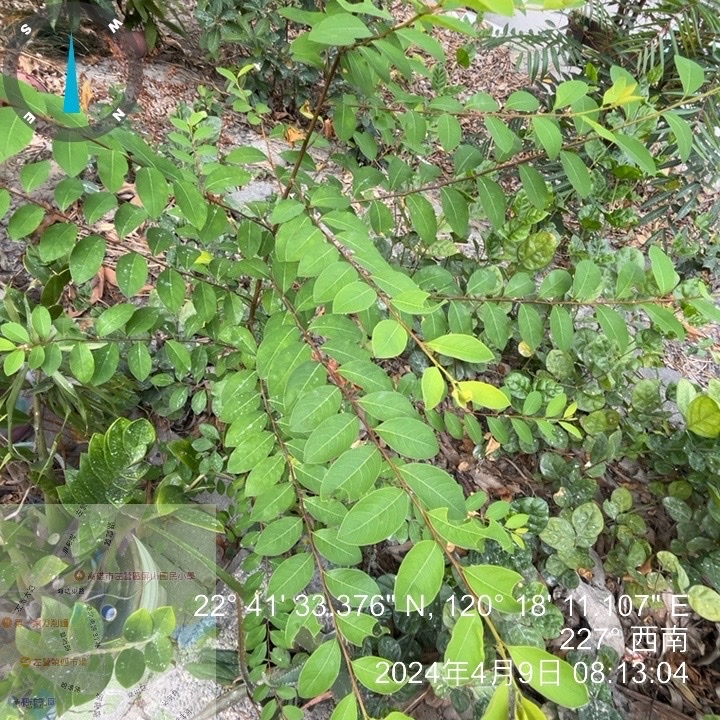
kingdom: Plantae
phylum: Tracheophyta
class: Magnoliopsida
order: Malpighiales
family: Phyllanthaceae
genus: Flueggea
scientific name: Flueggea virosa
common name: Common bushweed
